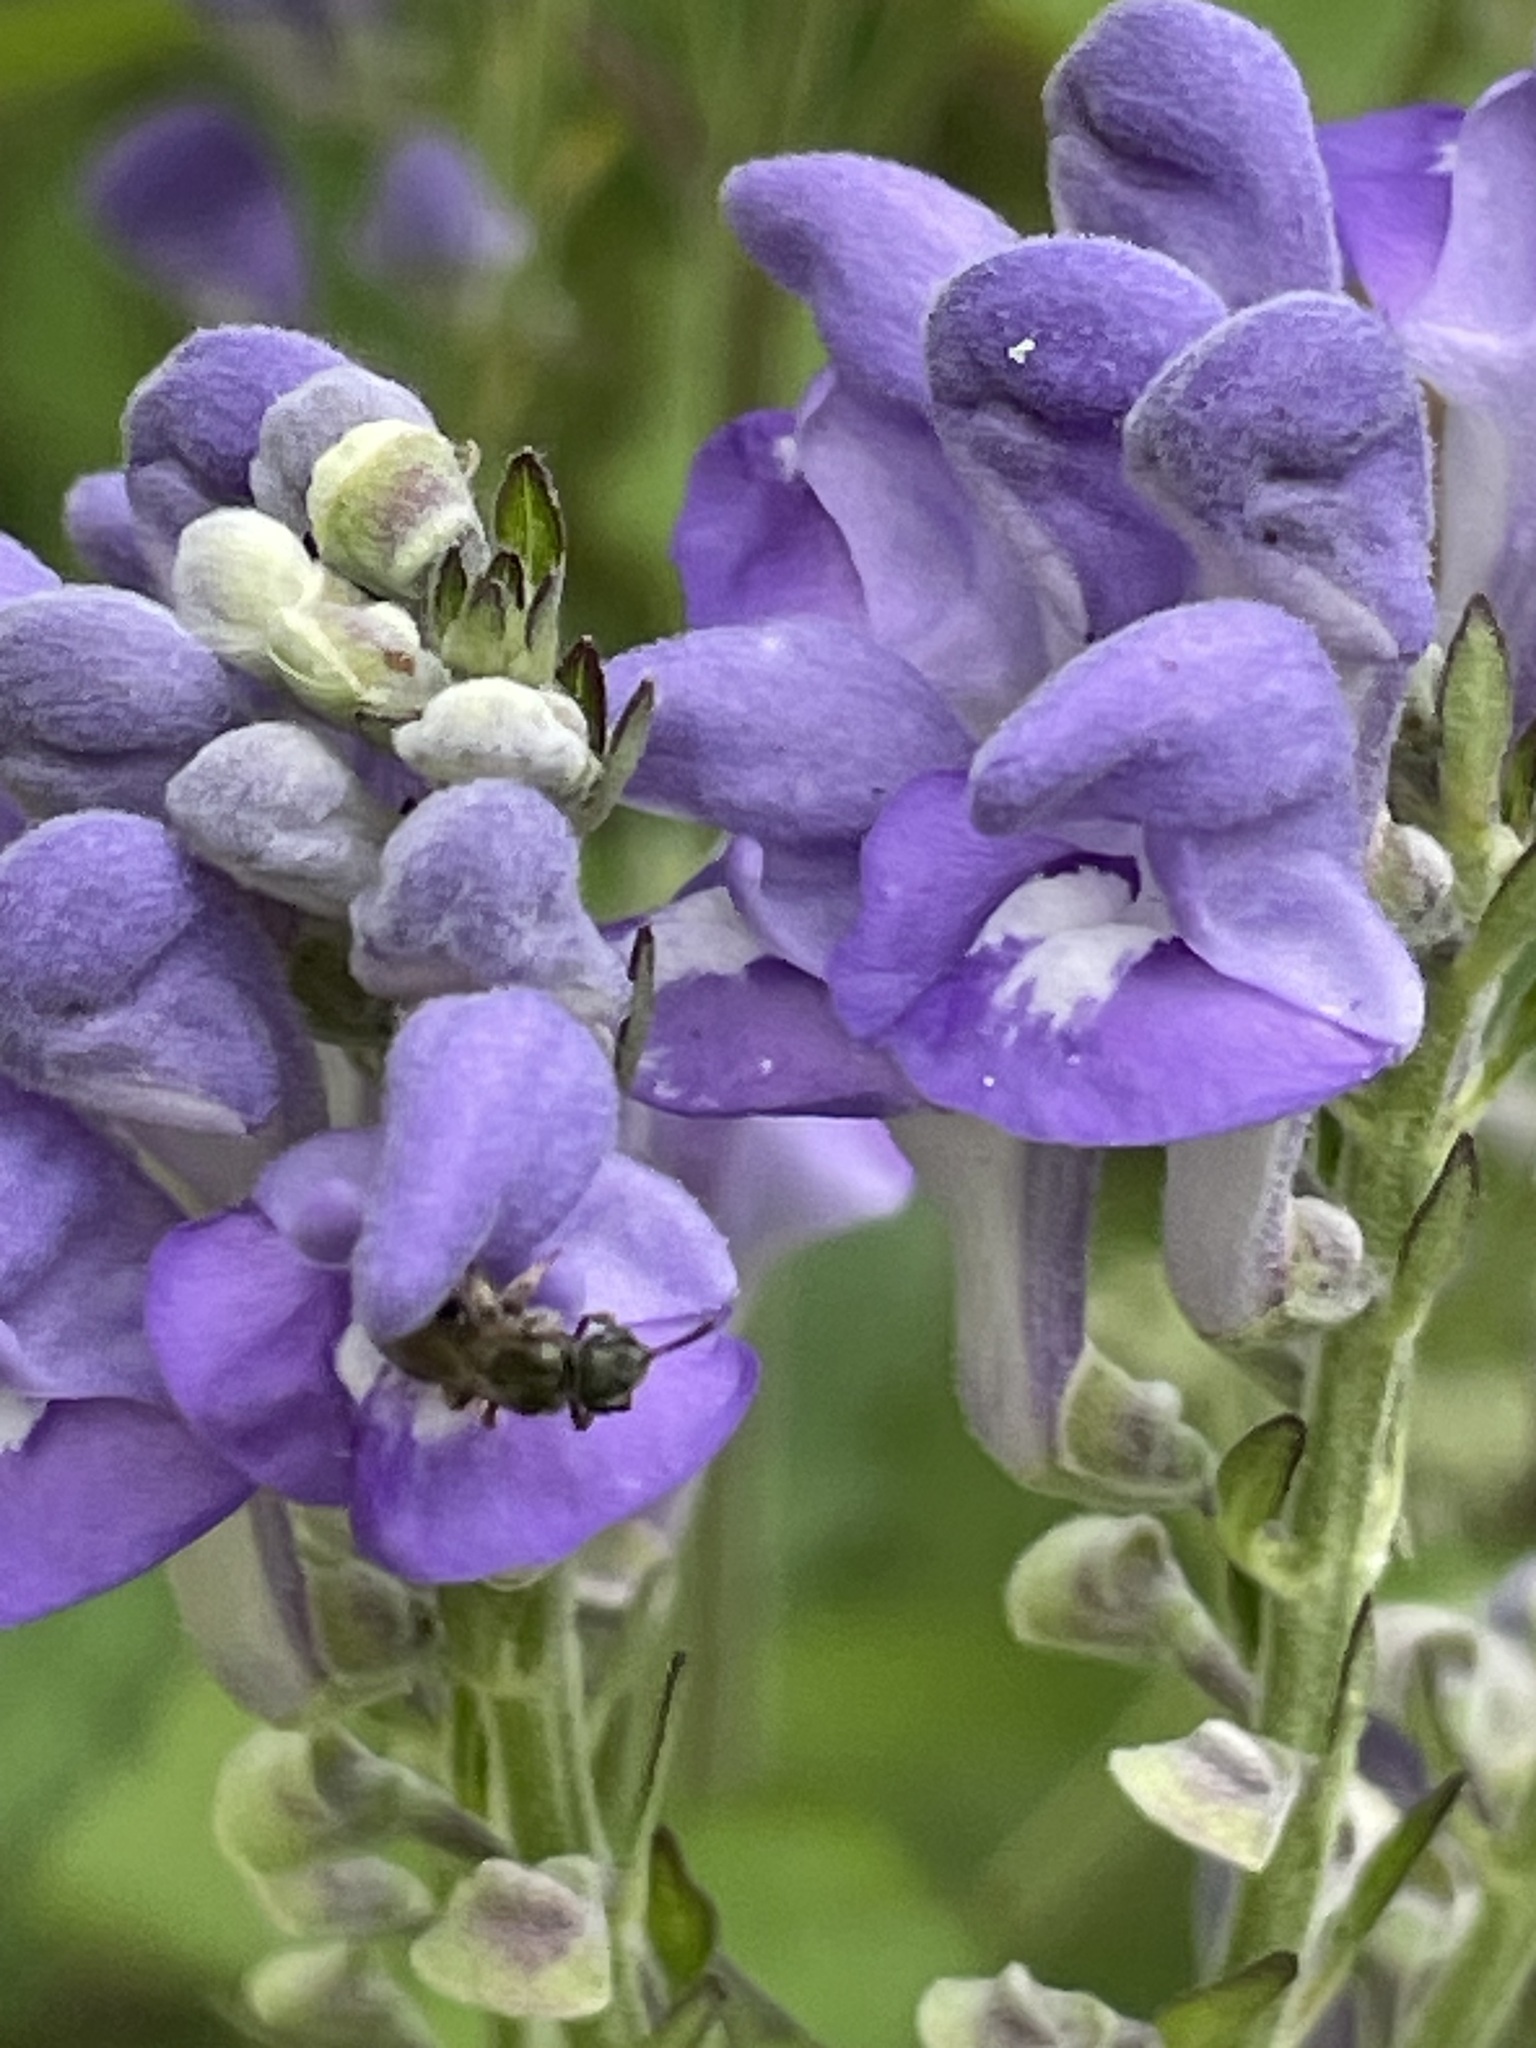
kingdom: Plantae
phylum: Tracheophyta
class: Magnoliopsida
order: Lamiales
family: Lamiaceae
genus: Scutellaria
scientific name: Scutellaria incana
